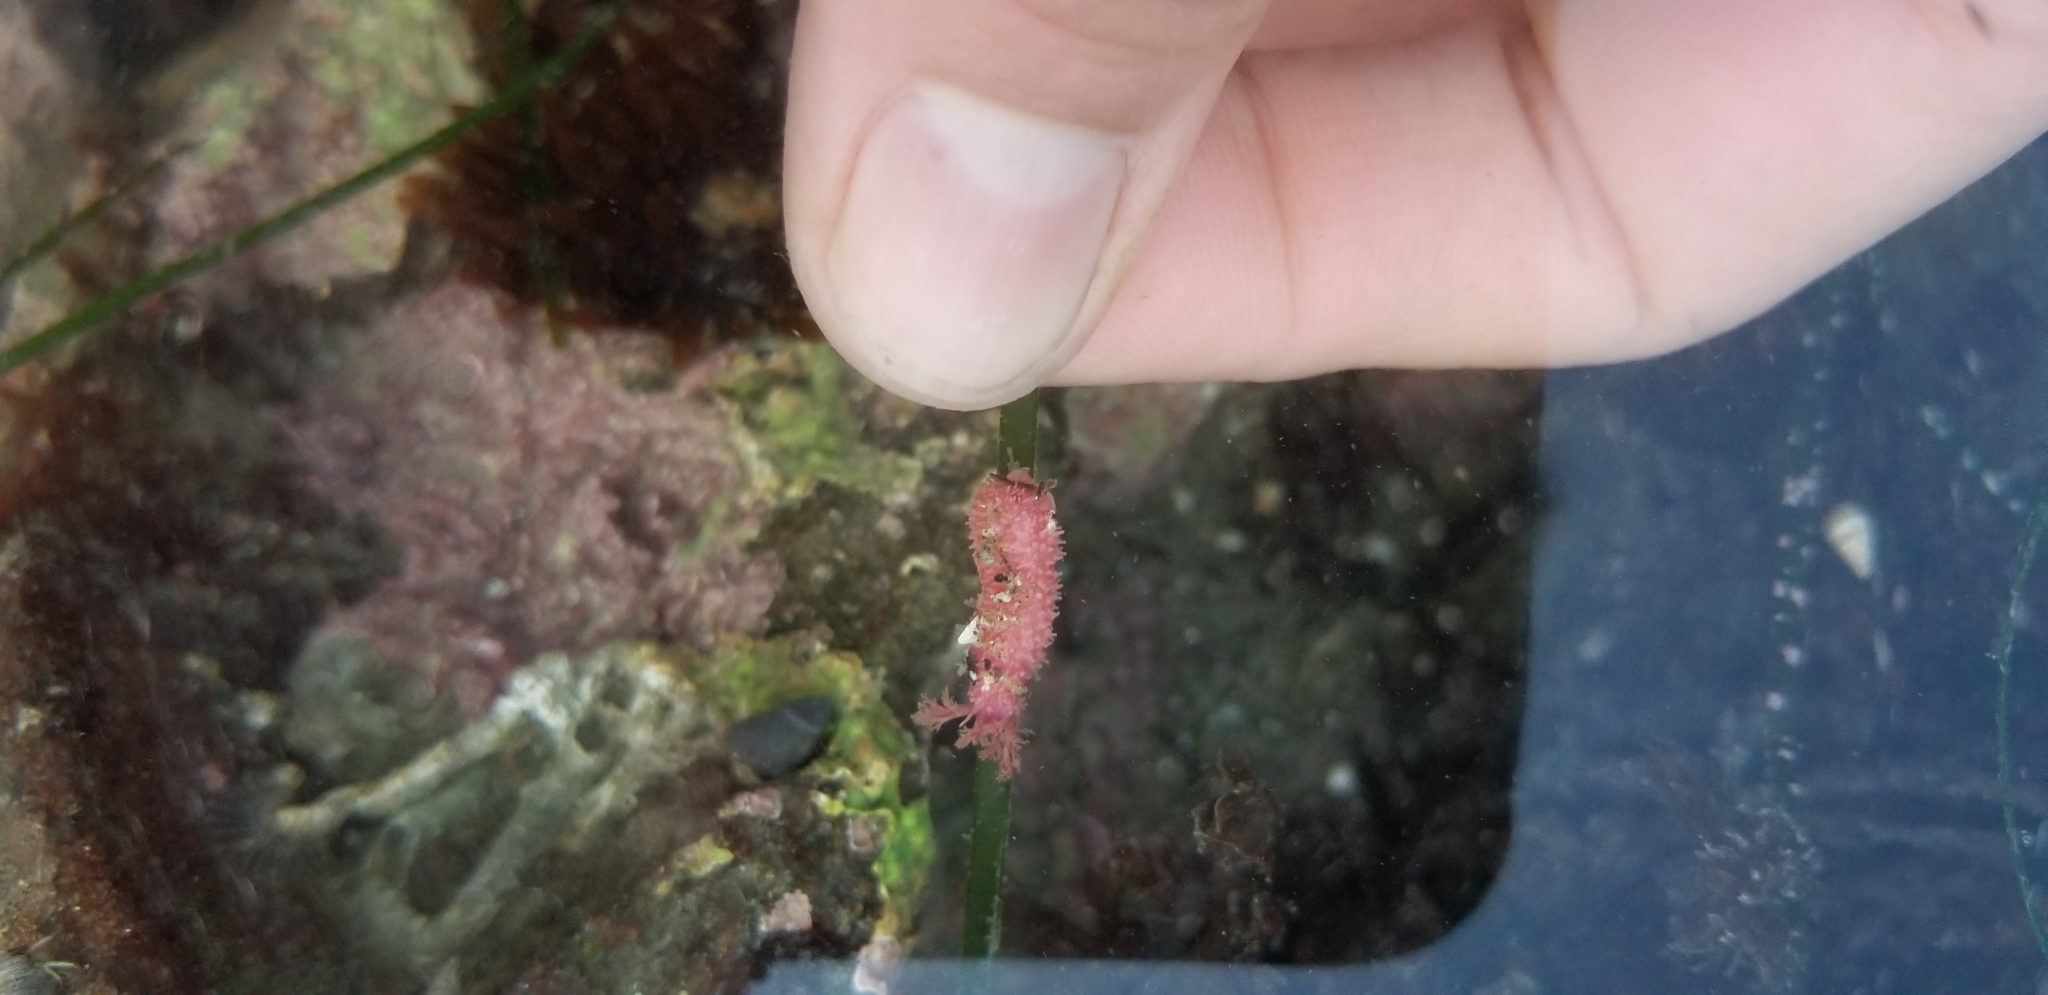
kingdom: Animalia
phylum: Echinodermata
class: Holothuroidea
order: Dendrochirotida
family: Psolidae
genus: Lissothuria
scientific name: Lissothuria nutriens
